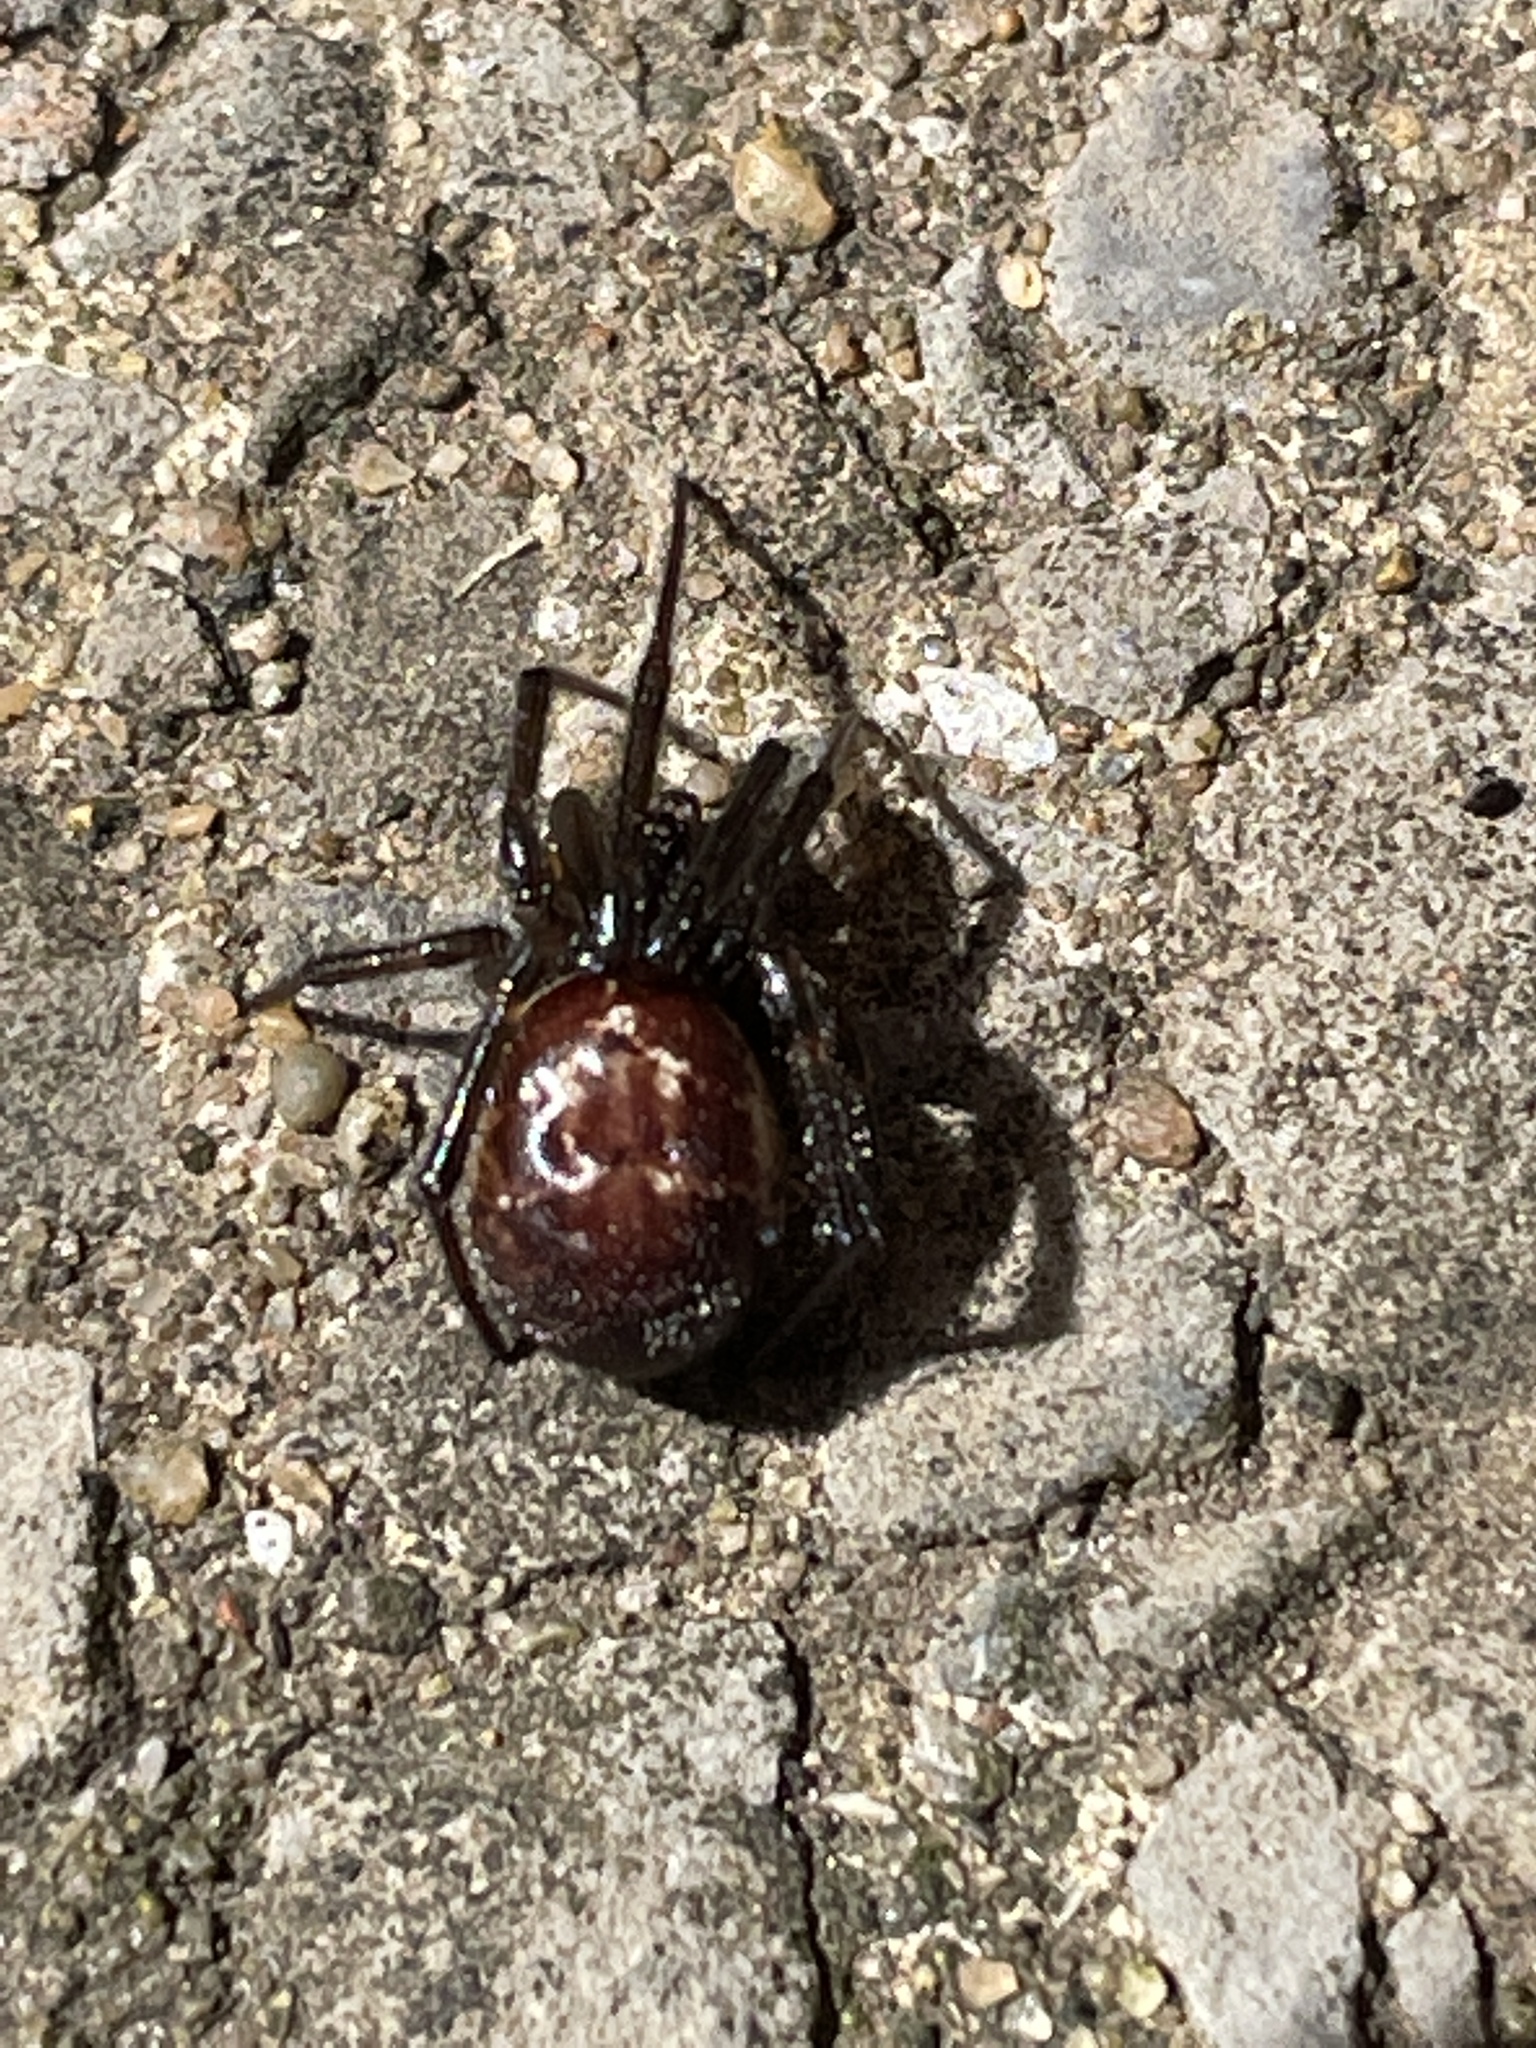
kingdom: Animalia
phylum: Arthropoda
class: Arachnida
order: Araneae
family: Theridiidae
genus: Steatoda
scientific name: Steatoda nobilis
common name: Cobweb weaver
